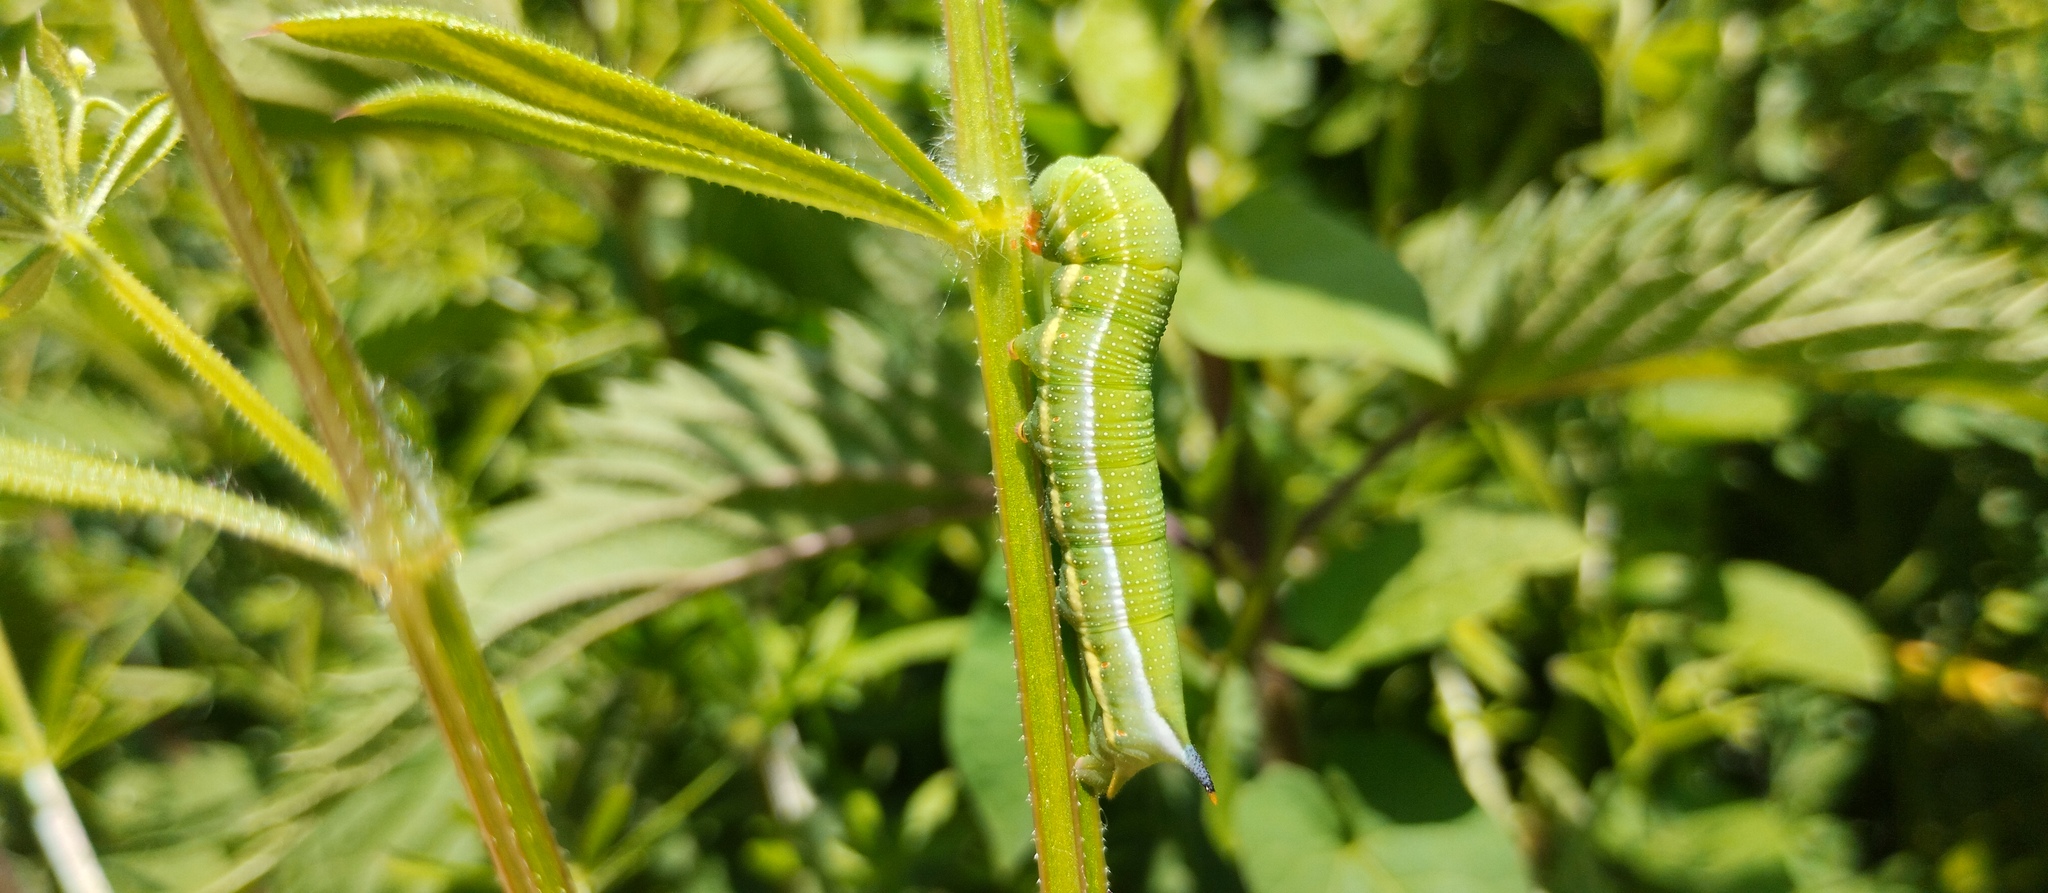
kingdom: Animalia
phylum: Arthropoda
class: Insecta
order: Lepidoptera
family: Sphingidae
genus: Macroglossum
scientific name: Macroglossum stellatarum
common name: Humming-bird hawk-moth
